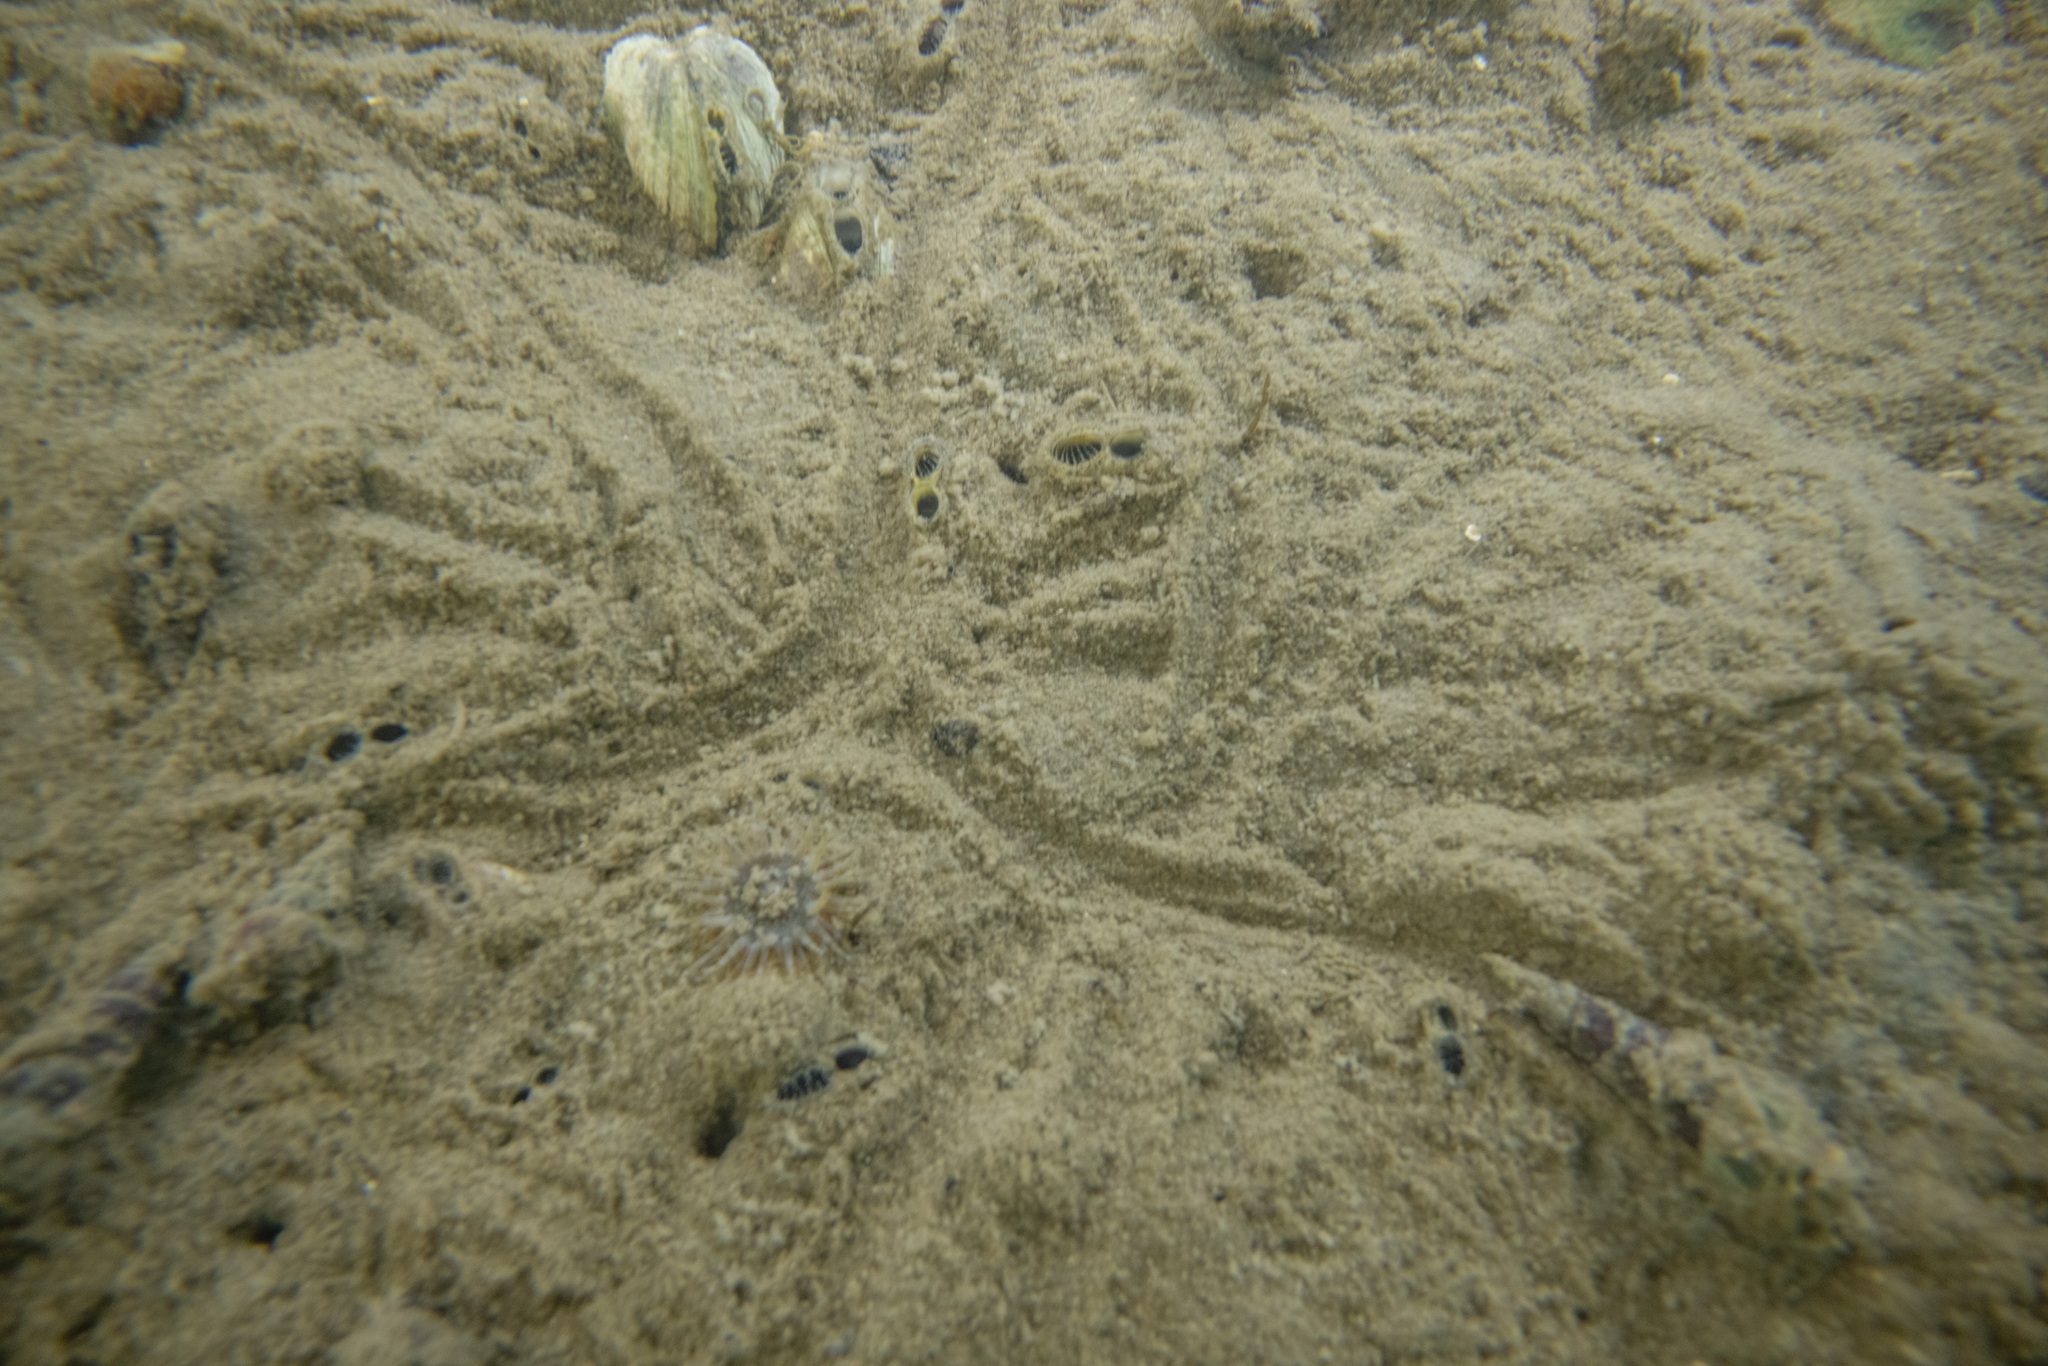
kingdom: Animalia
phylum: Mollusca
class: Bivalvia
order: Venerida
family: Veneridae
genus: Austrovenus
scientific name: Austrovenus stutchburyi
